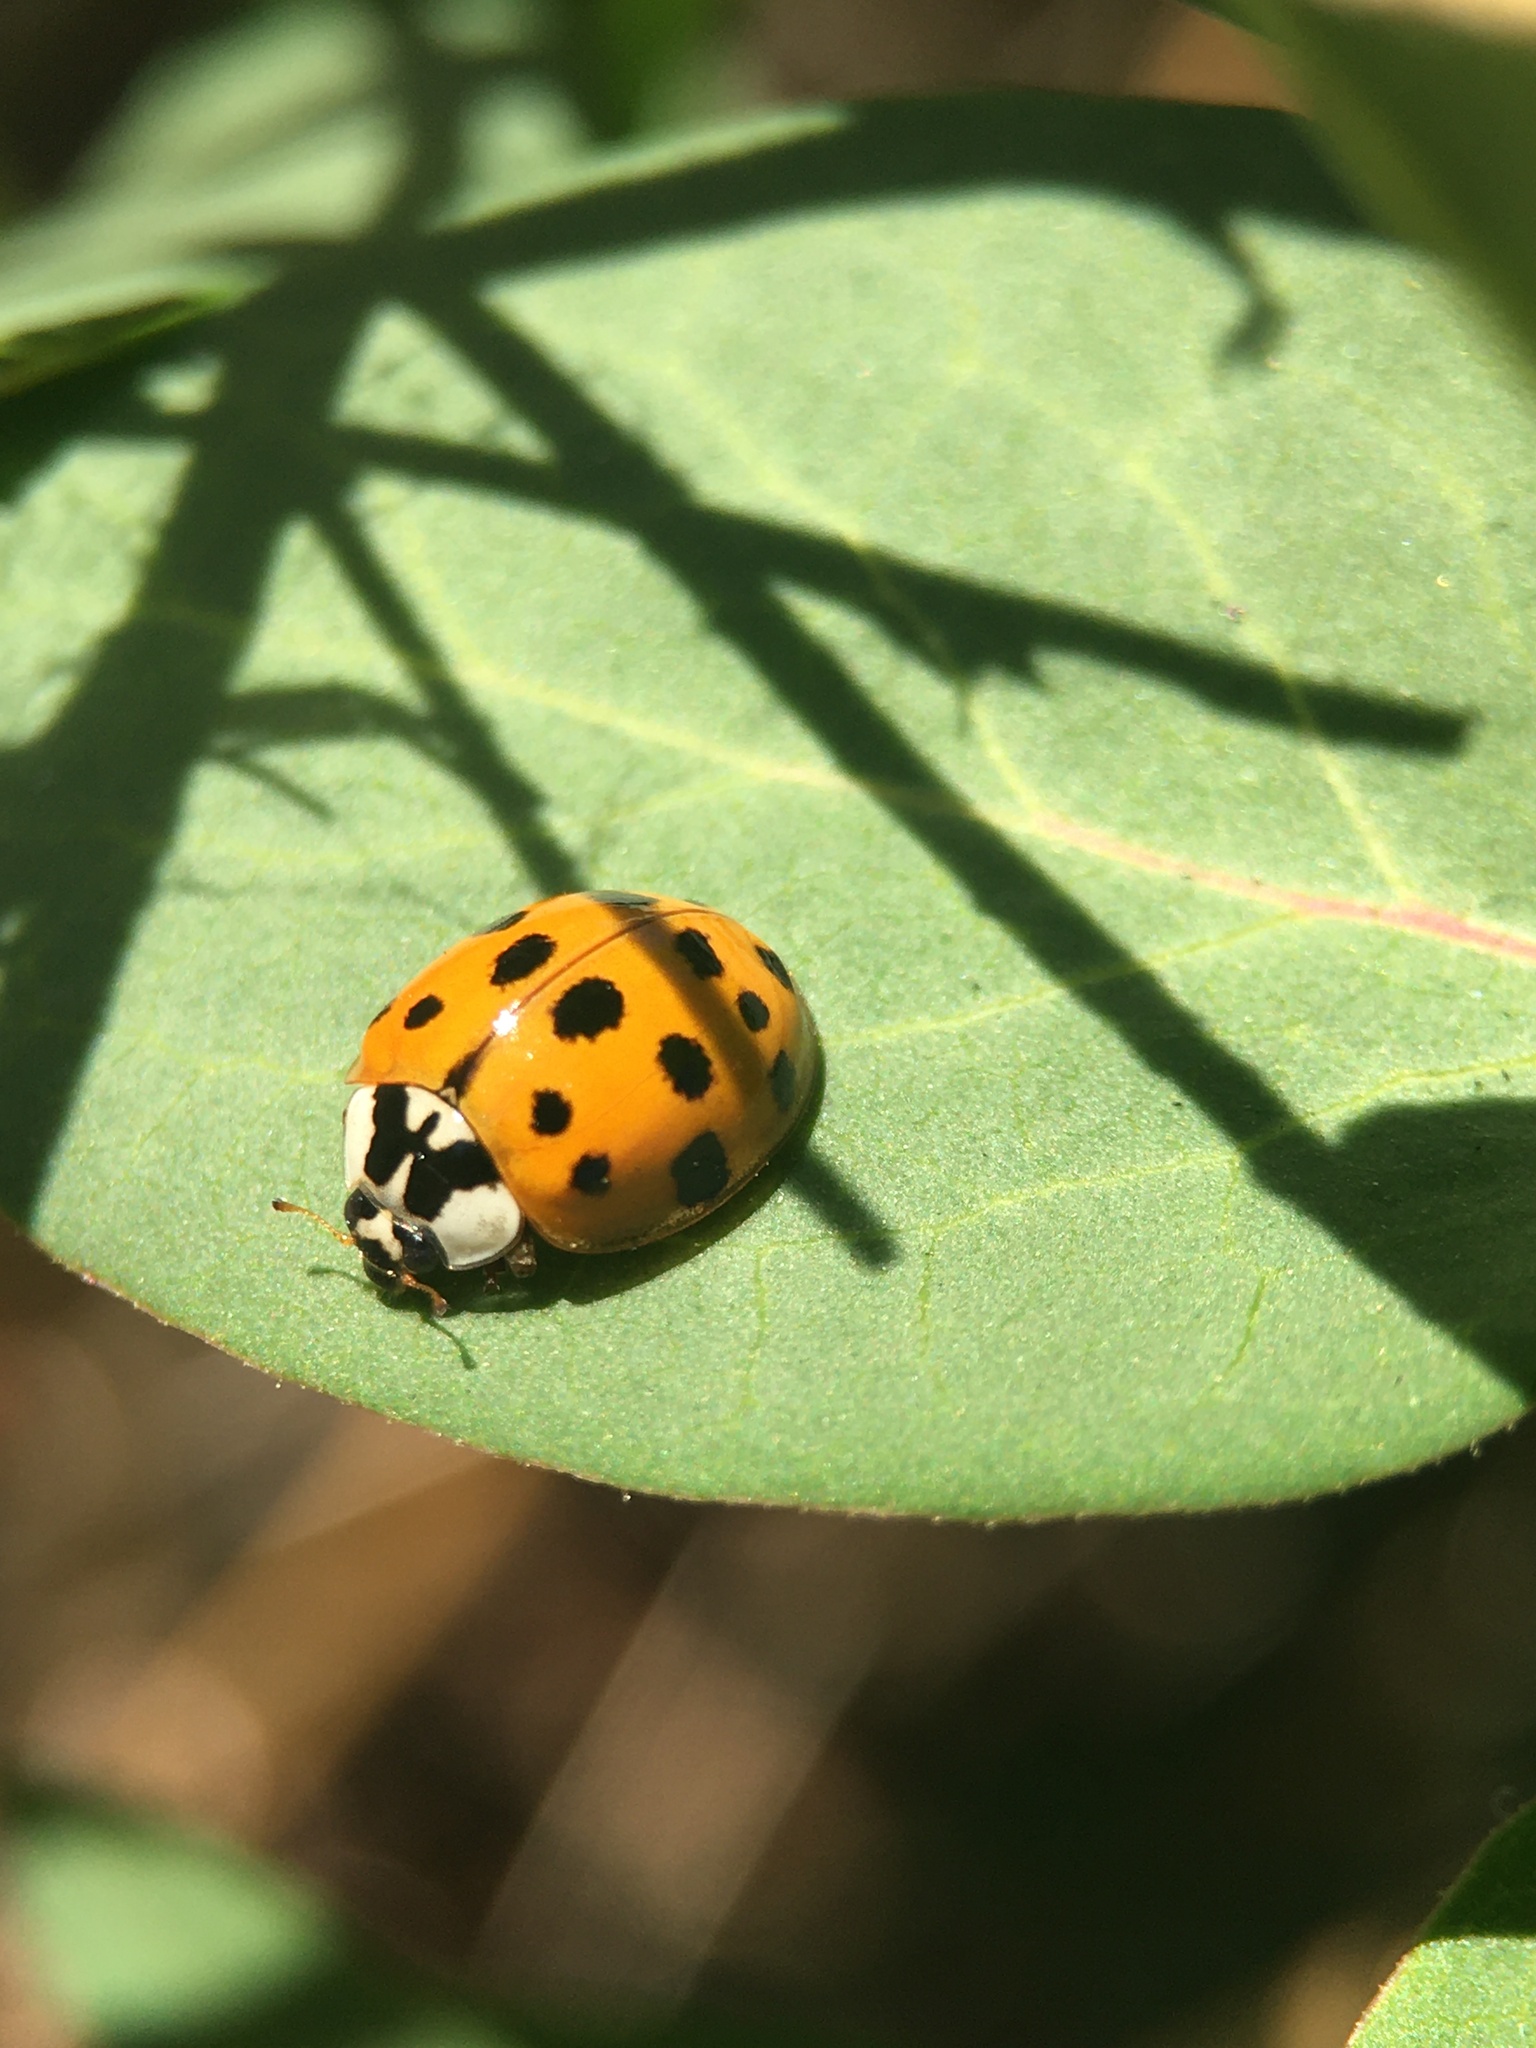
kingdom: Animalia
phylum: Arthropoda
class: Insecta
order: Coleoptera
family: Coccinellidae
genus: Harmonia
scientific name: Harmonia axyridis
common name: Harlequin ladybird
